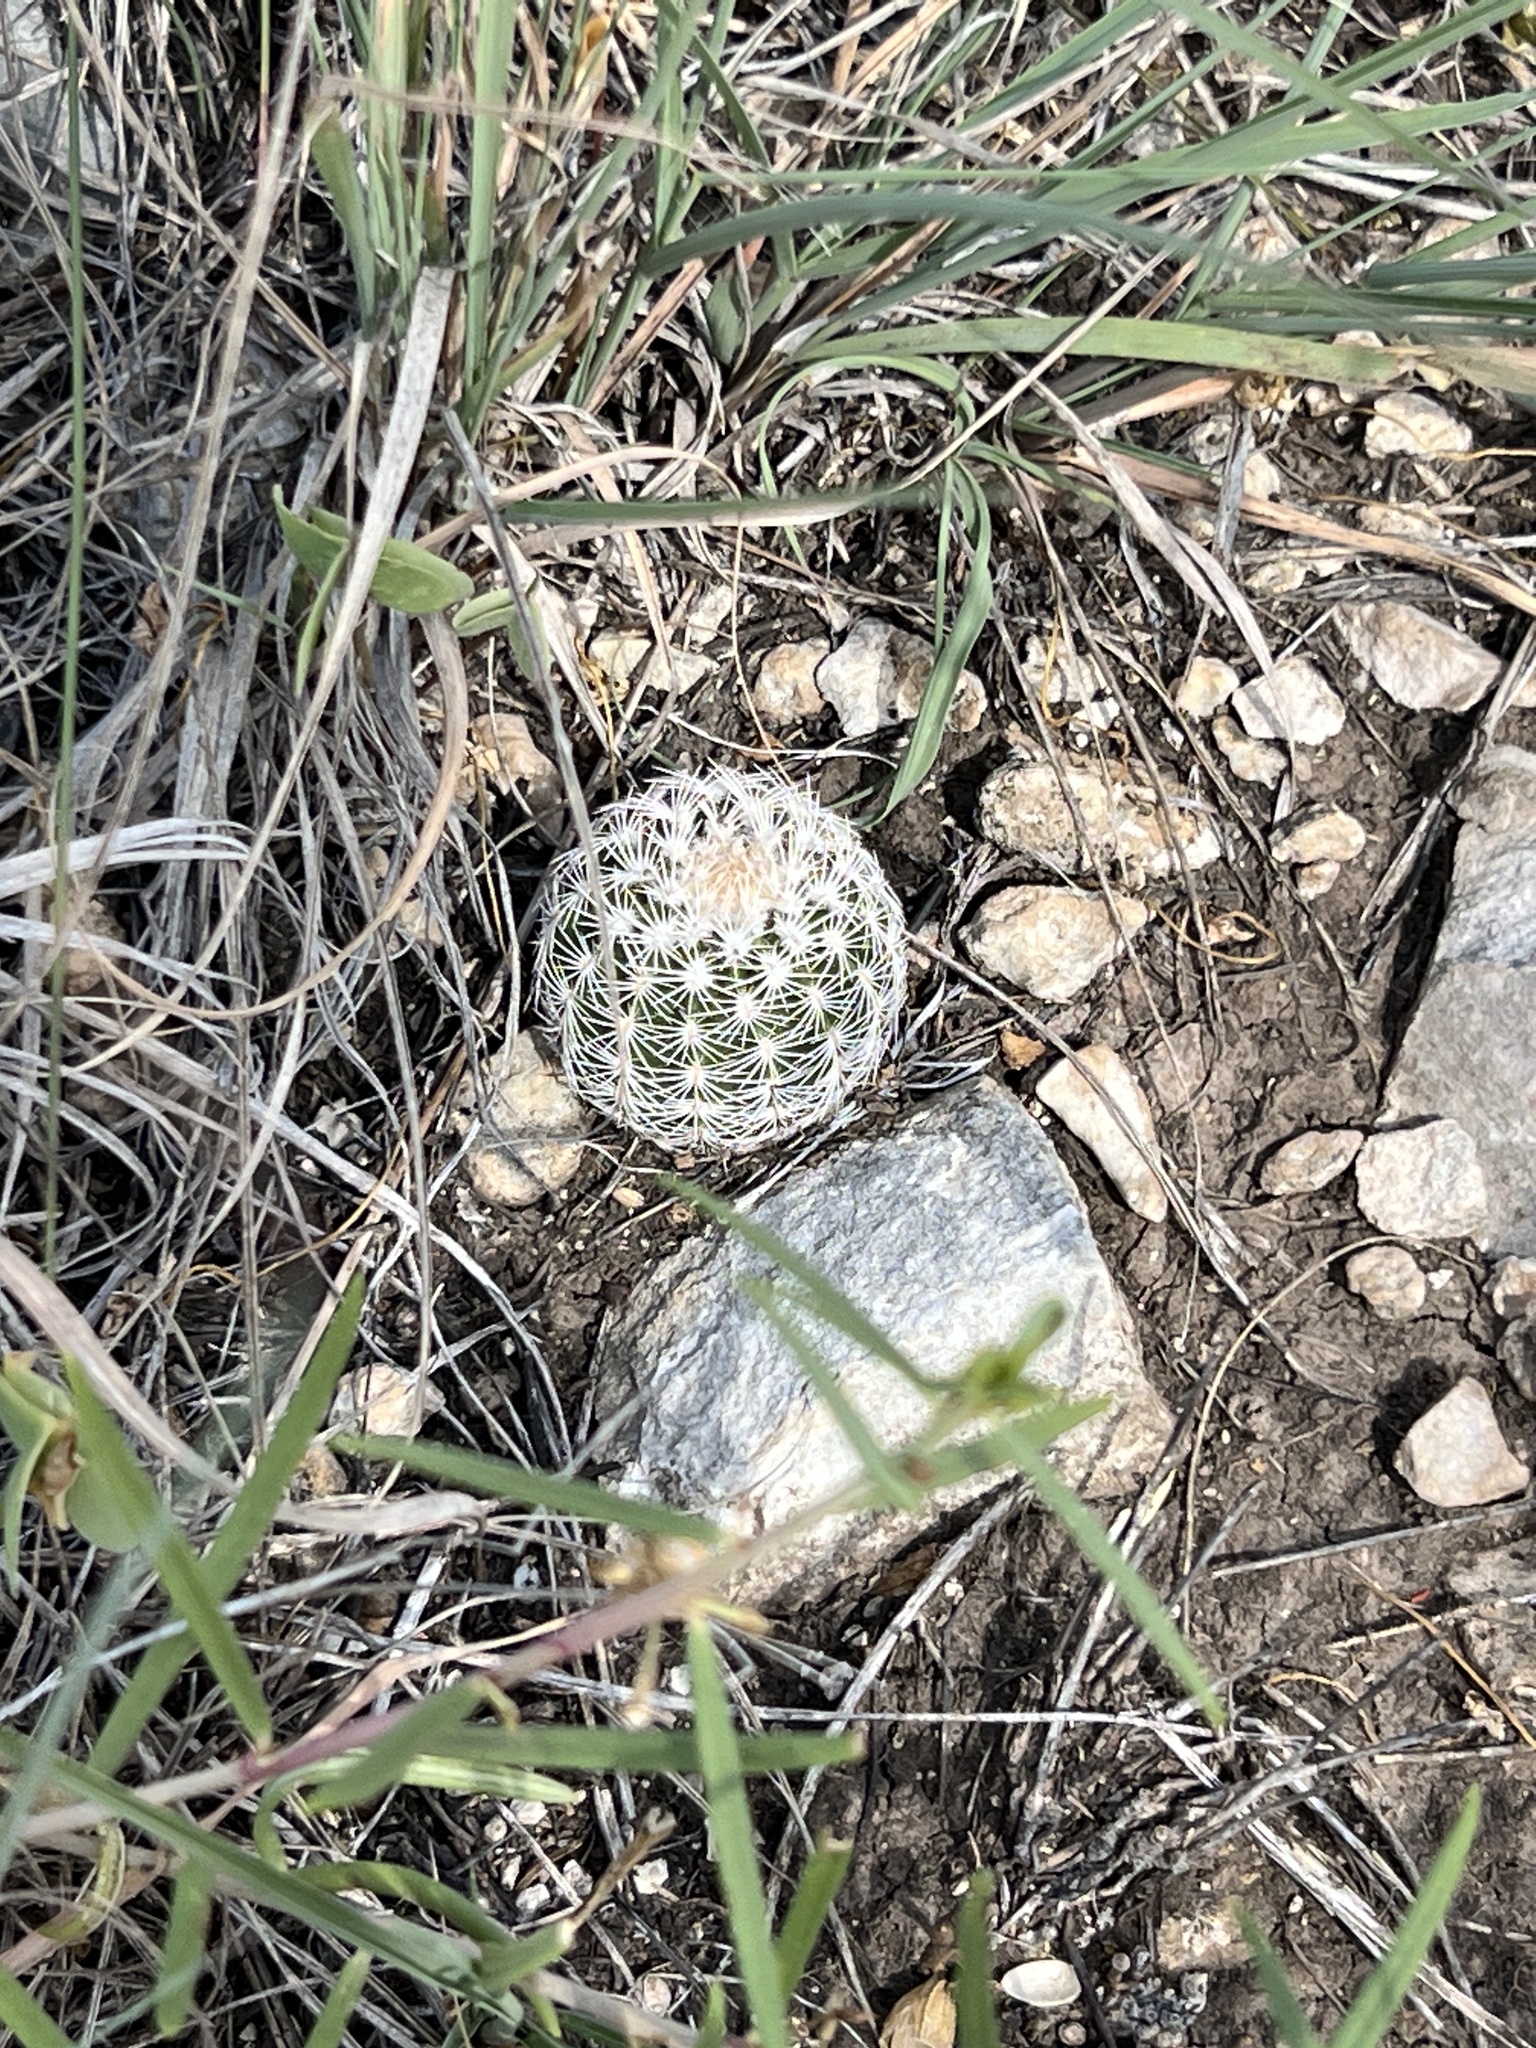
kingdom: Plantae
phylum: Tracheophyta
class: Magnoliopsida
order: Caryophyllales
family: Cactaceae
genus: Echinocereus
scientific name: Echinocereus reichenbachii
